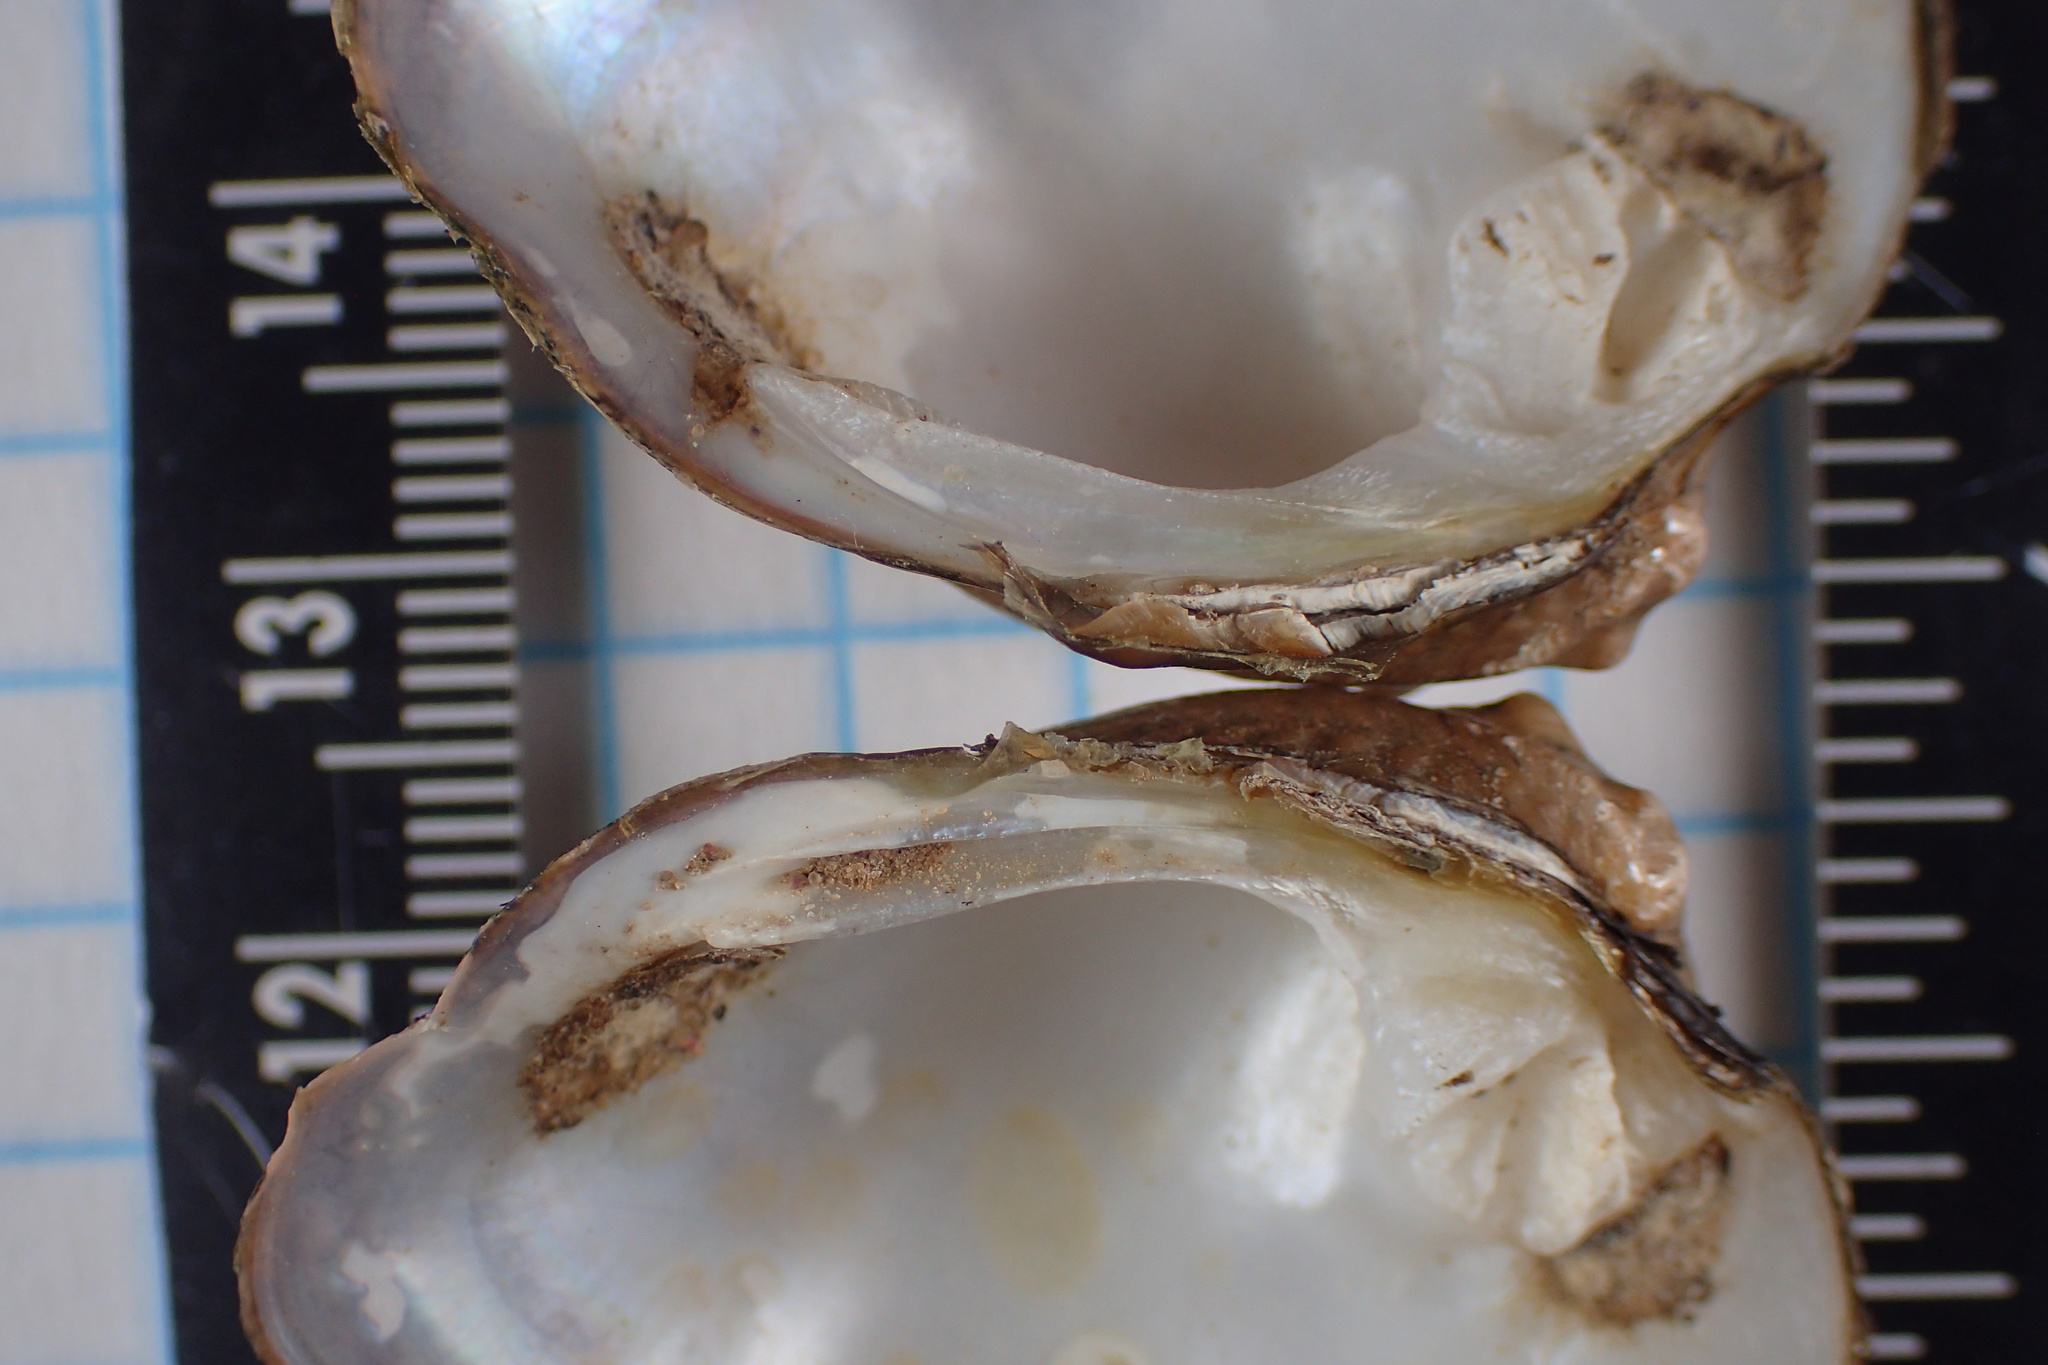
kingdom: Animalia
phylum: Mollusca
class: Bivalvia
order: Unionida
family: Unionidae
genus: Obliquaria
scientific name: Obliquaria reflexa
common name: Threehorn wartyback
